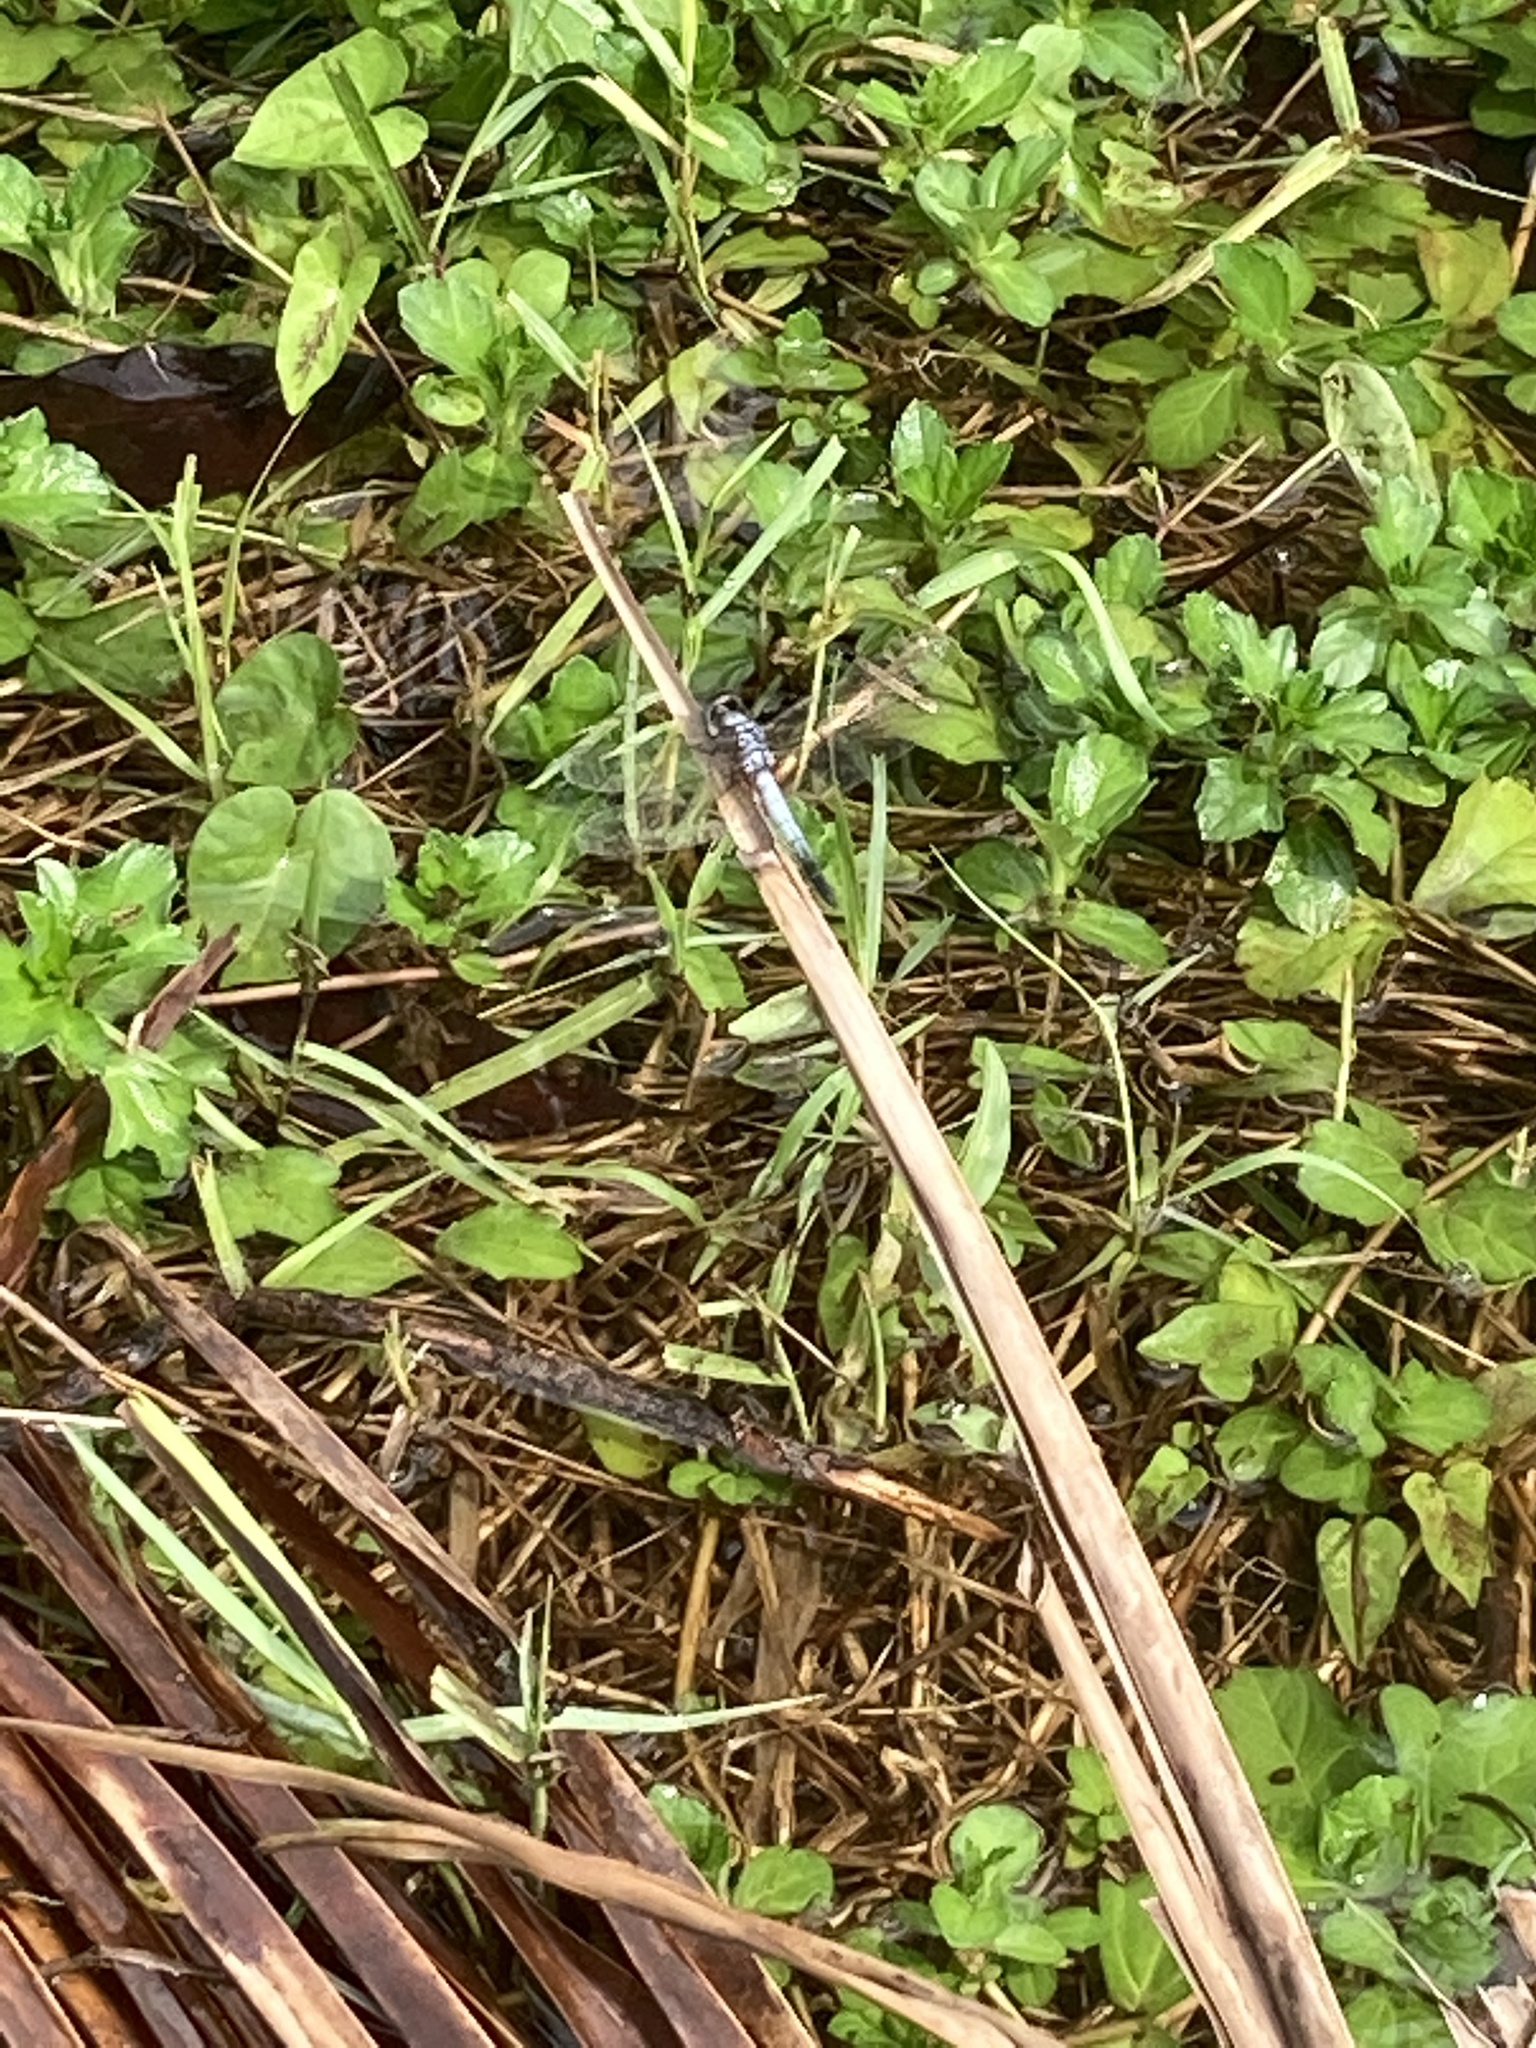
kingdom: Animalia
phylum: Arthropoda
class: Insecta
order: Odonata
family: Libellulidae
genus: Brachydiplax
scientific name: Brachydiplax chalybea
